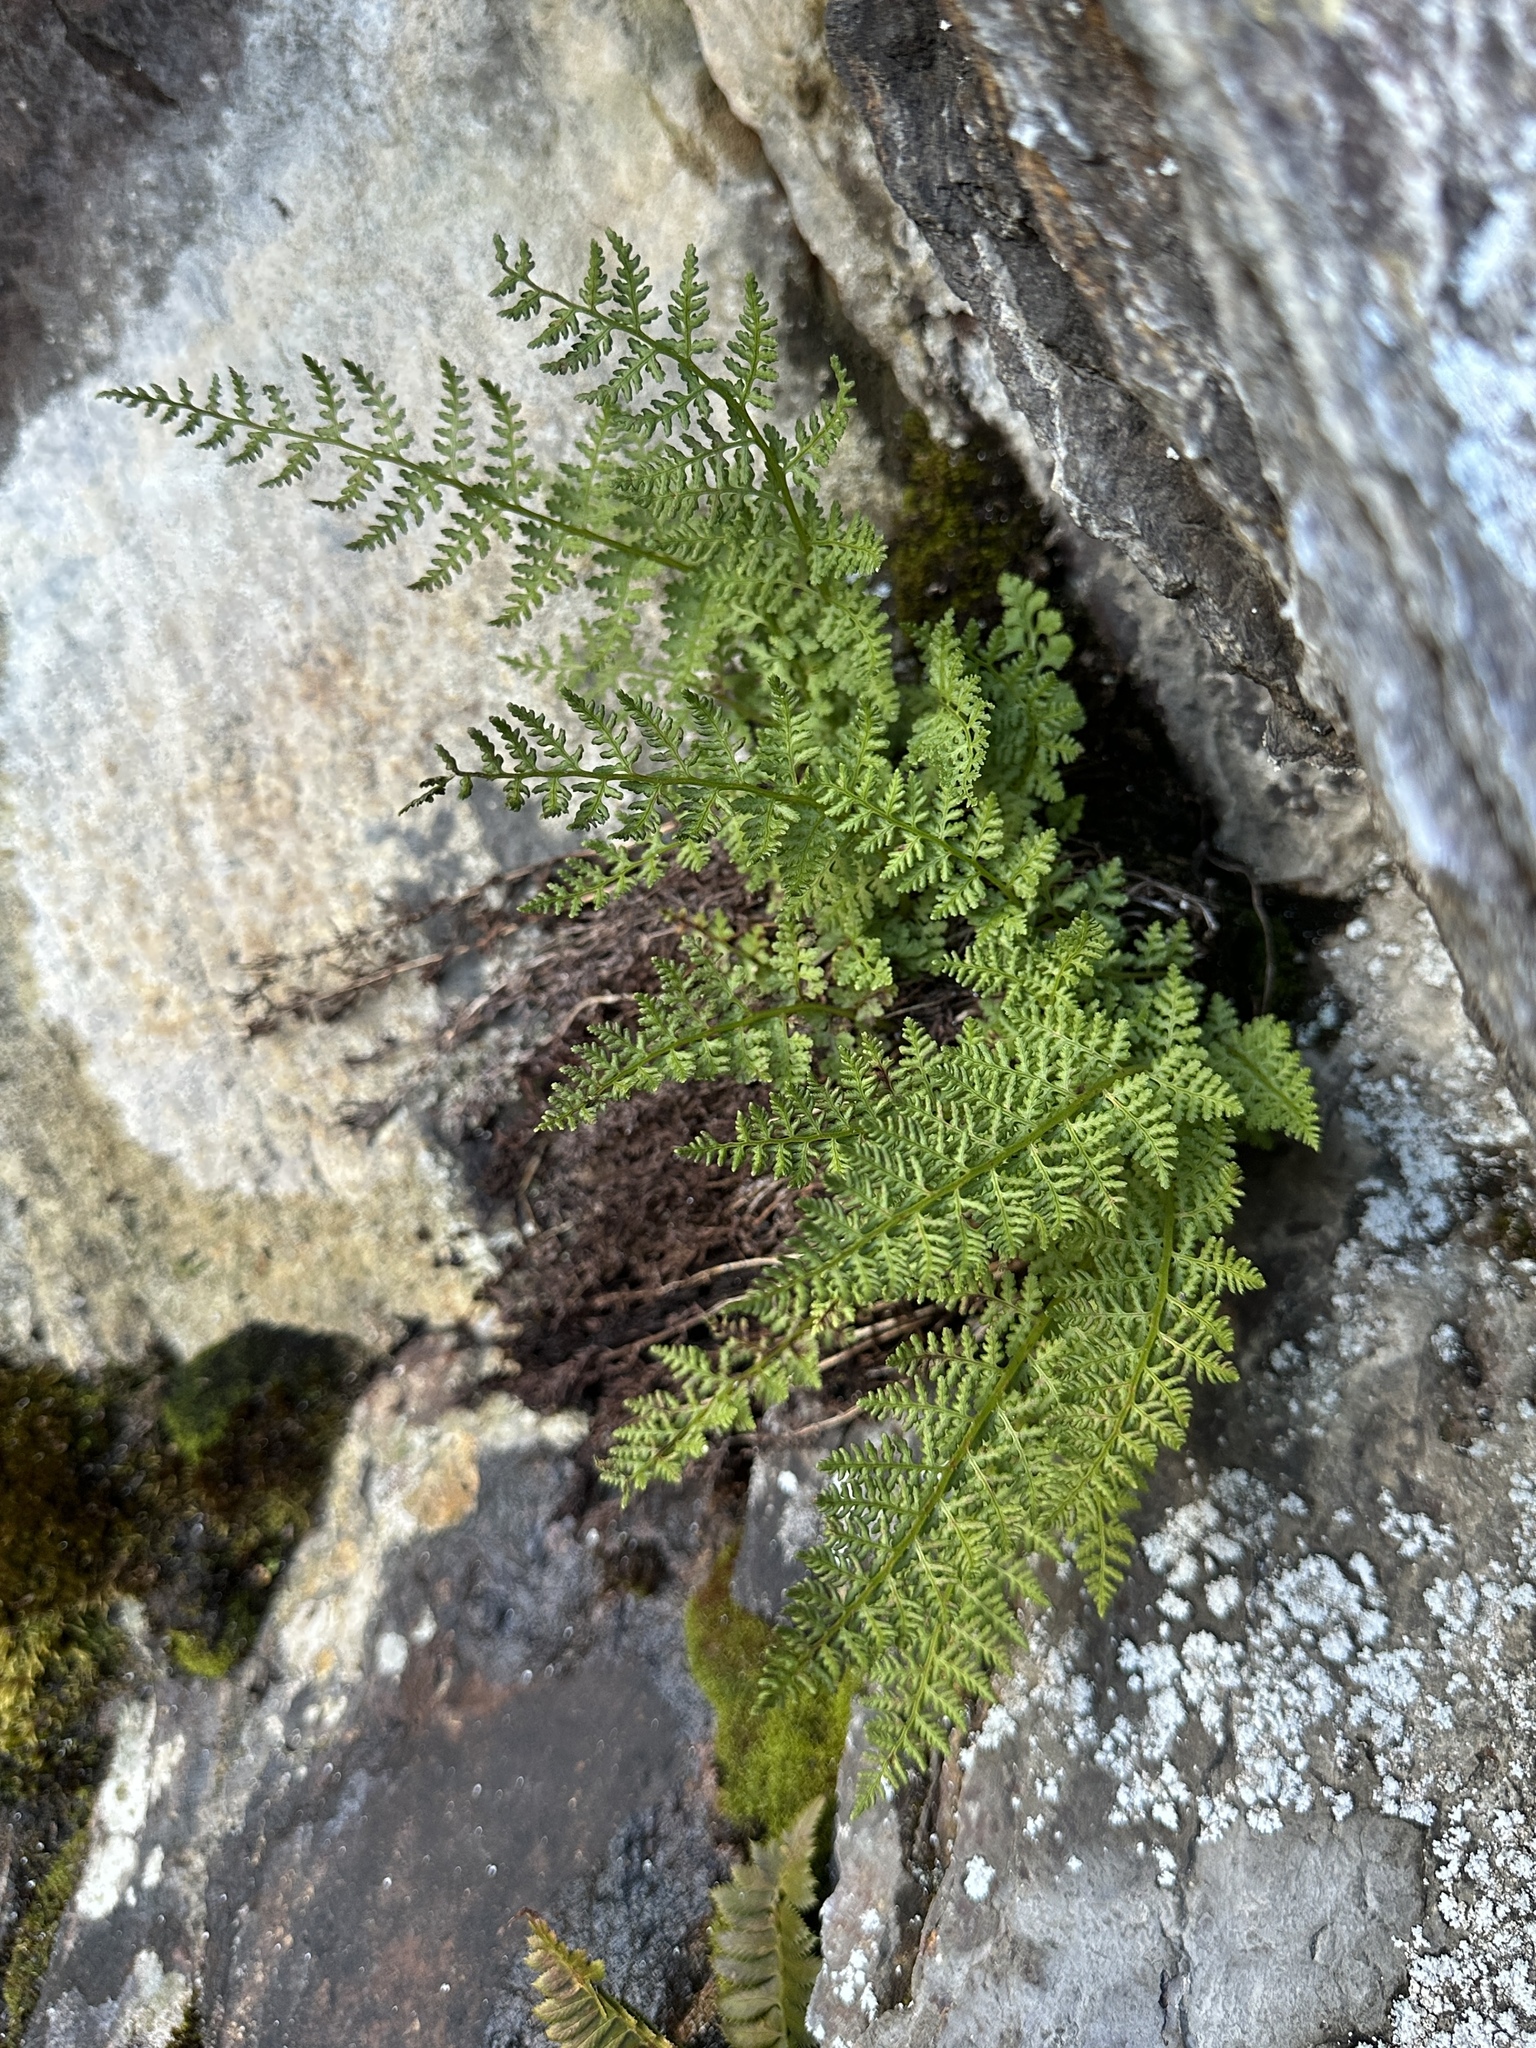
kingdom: Plantae
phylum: Tracheophyta
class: Polypodiopsida
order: Polypodiales
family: Athyriaceae
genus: Athyrium
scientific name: Athyrium americanum
